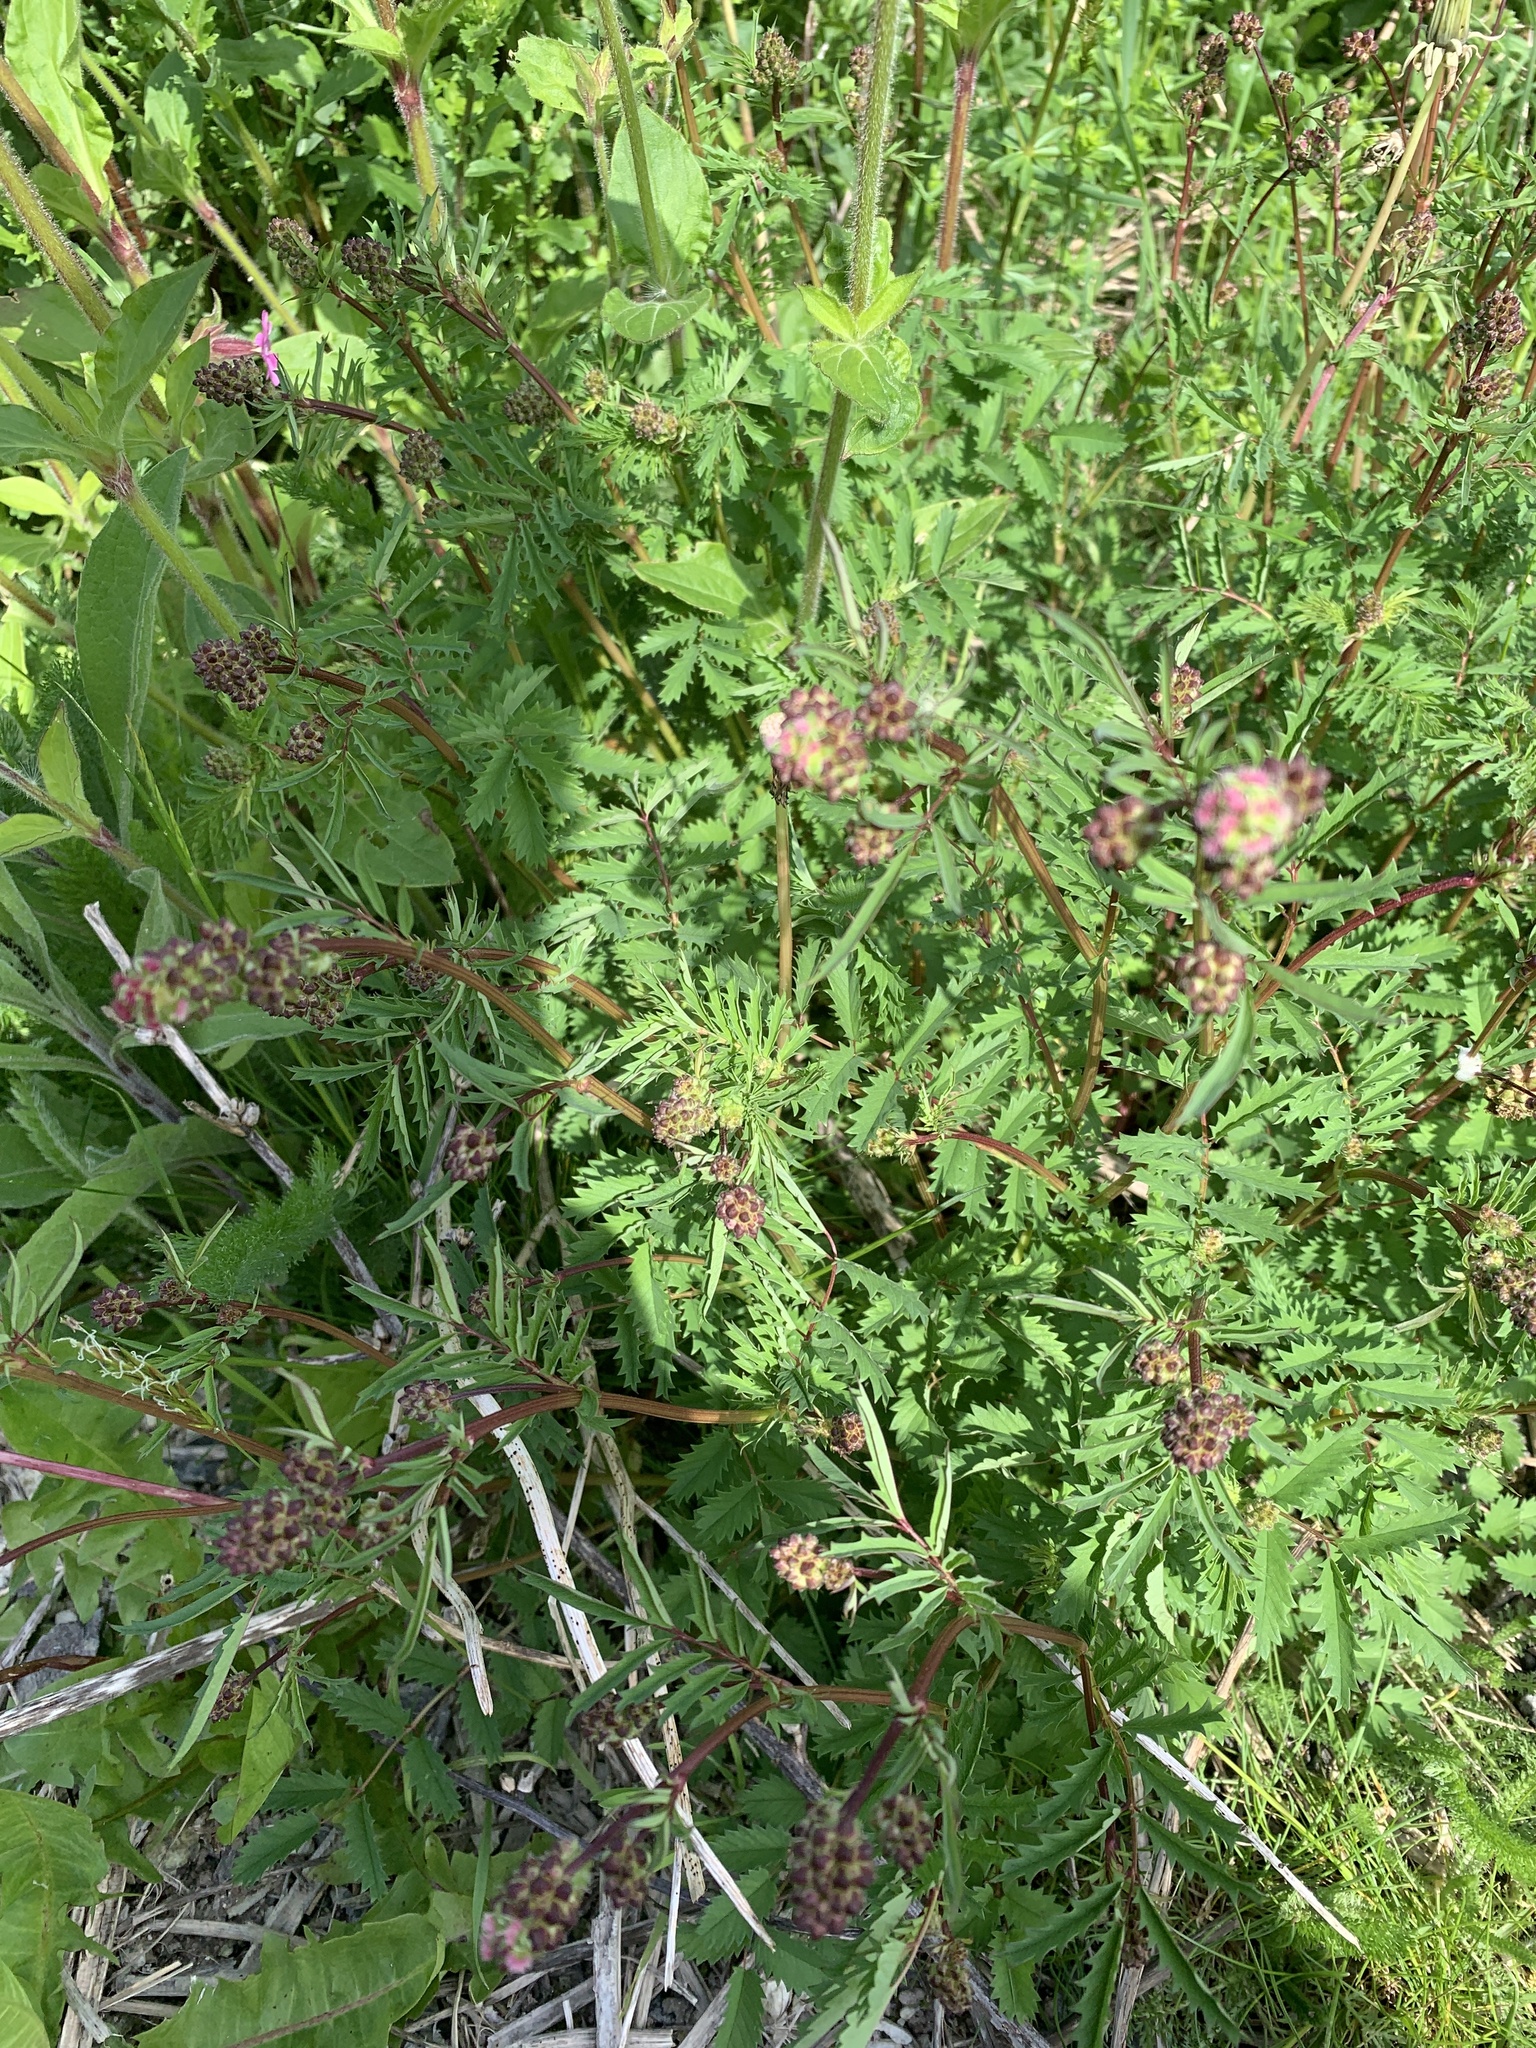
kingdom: Plantae
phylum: Tracheophyta
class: Magnoliopsida
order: Rosales
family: Rosaceae
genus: Poterium
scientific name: Poterium sanguisorba
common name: Salad burnet
